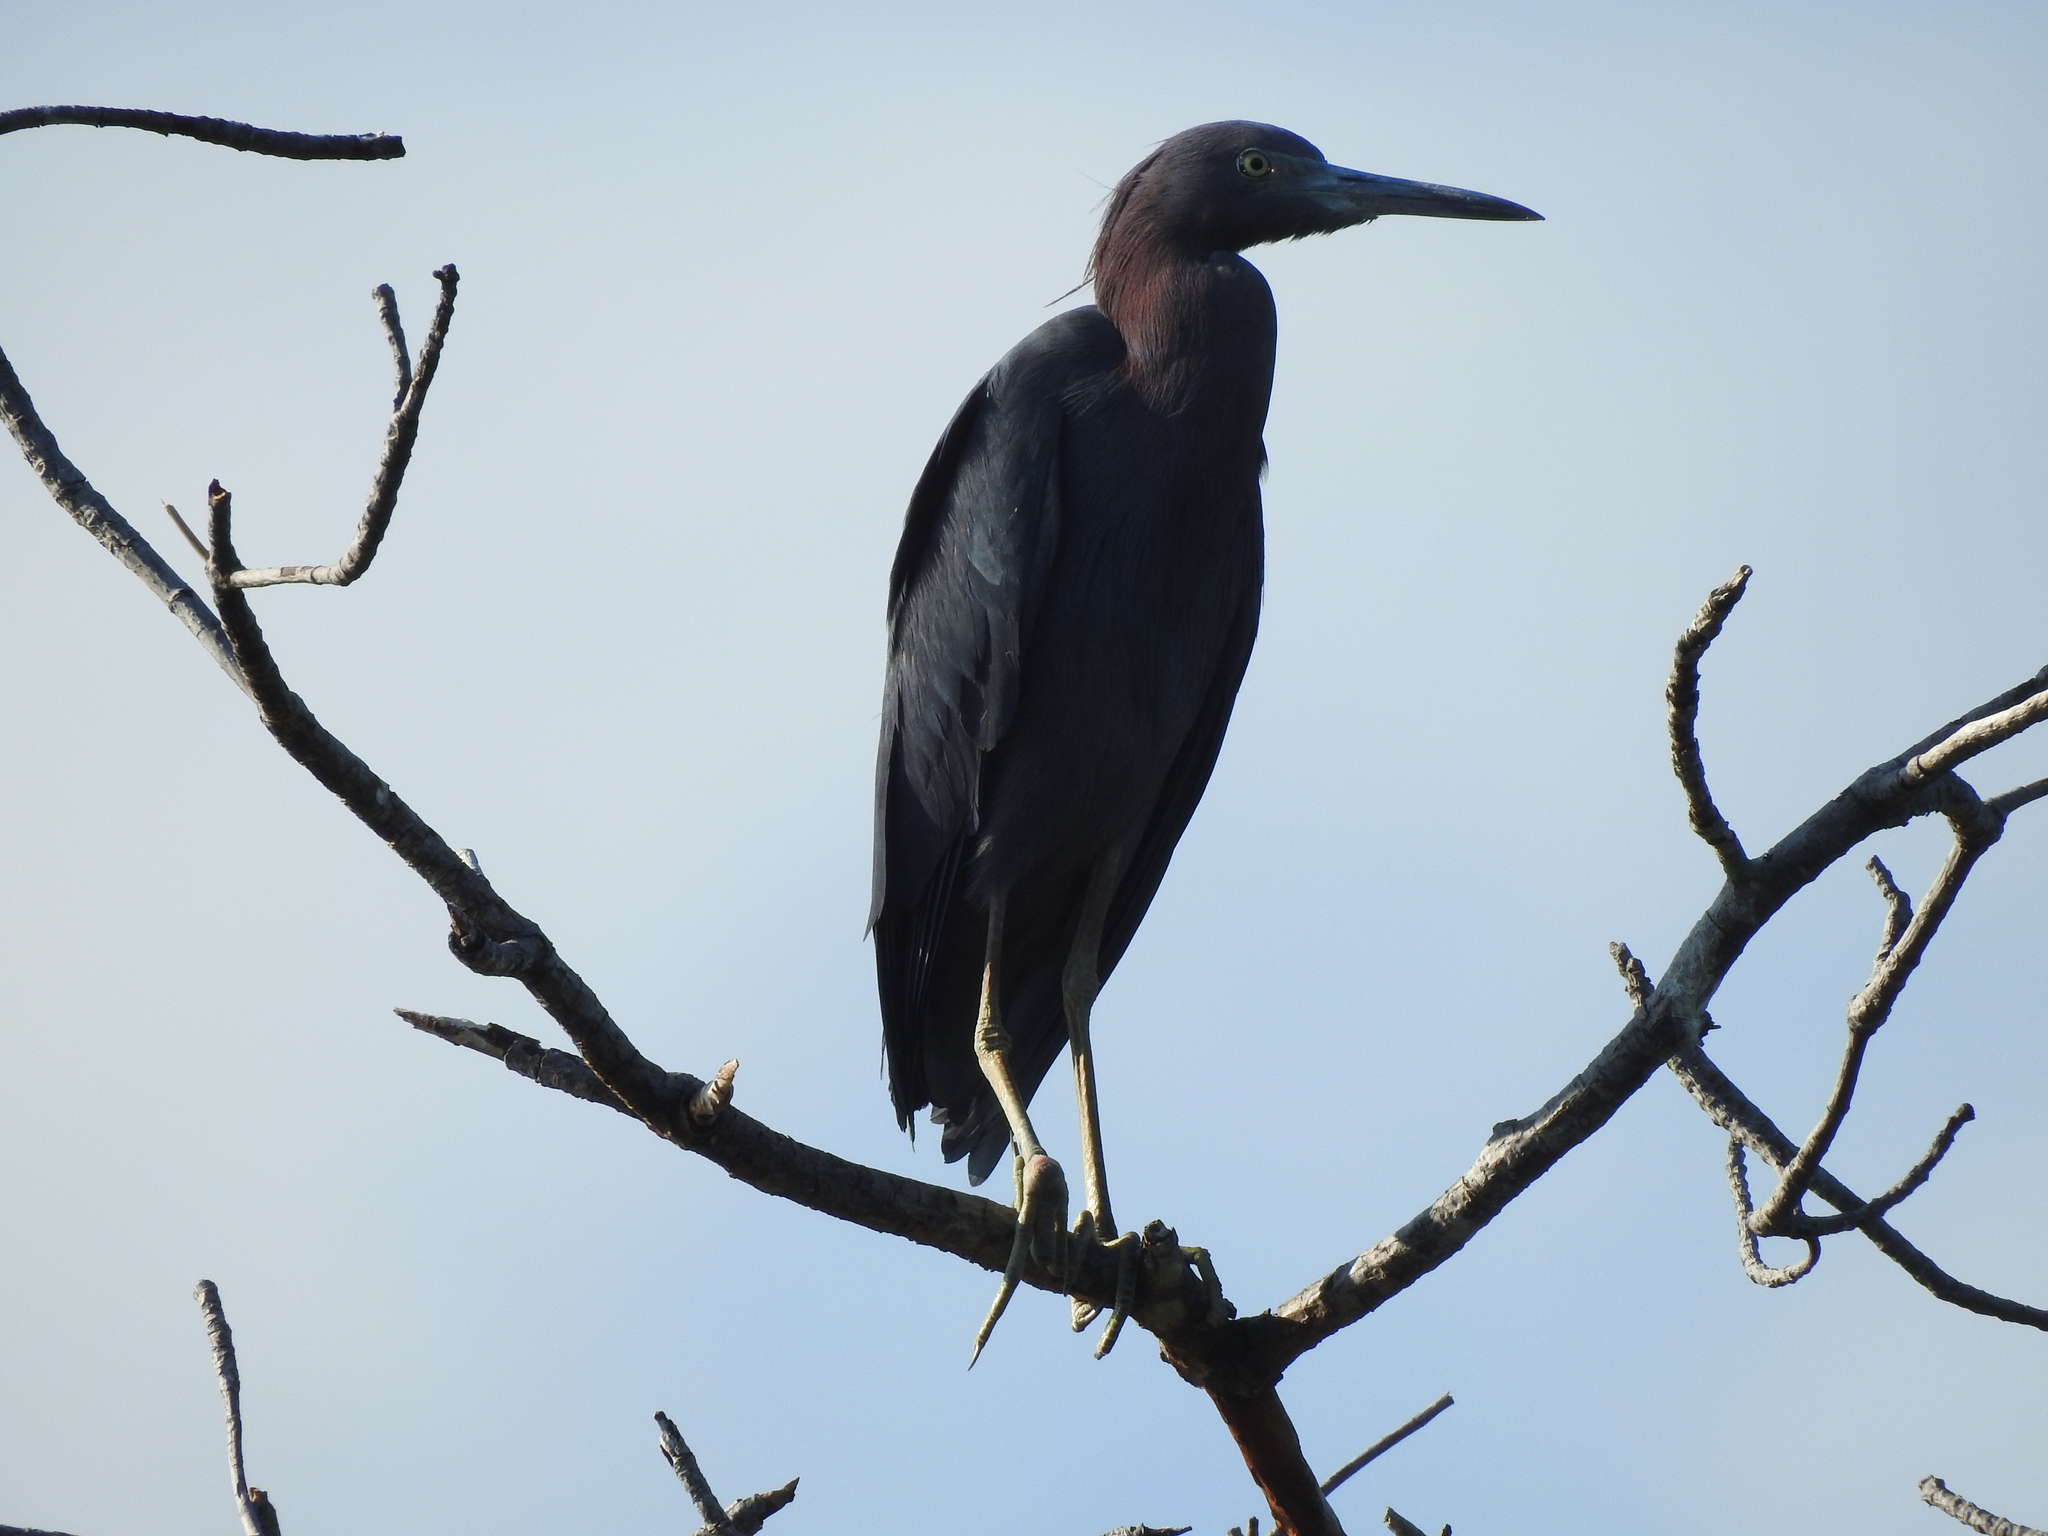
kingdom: Animalia
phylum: Chordata
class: Aves
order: Pelecaniformes
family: Ardeidae
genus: Egretta
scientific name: Egretta caerulea
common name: Little blue heron
